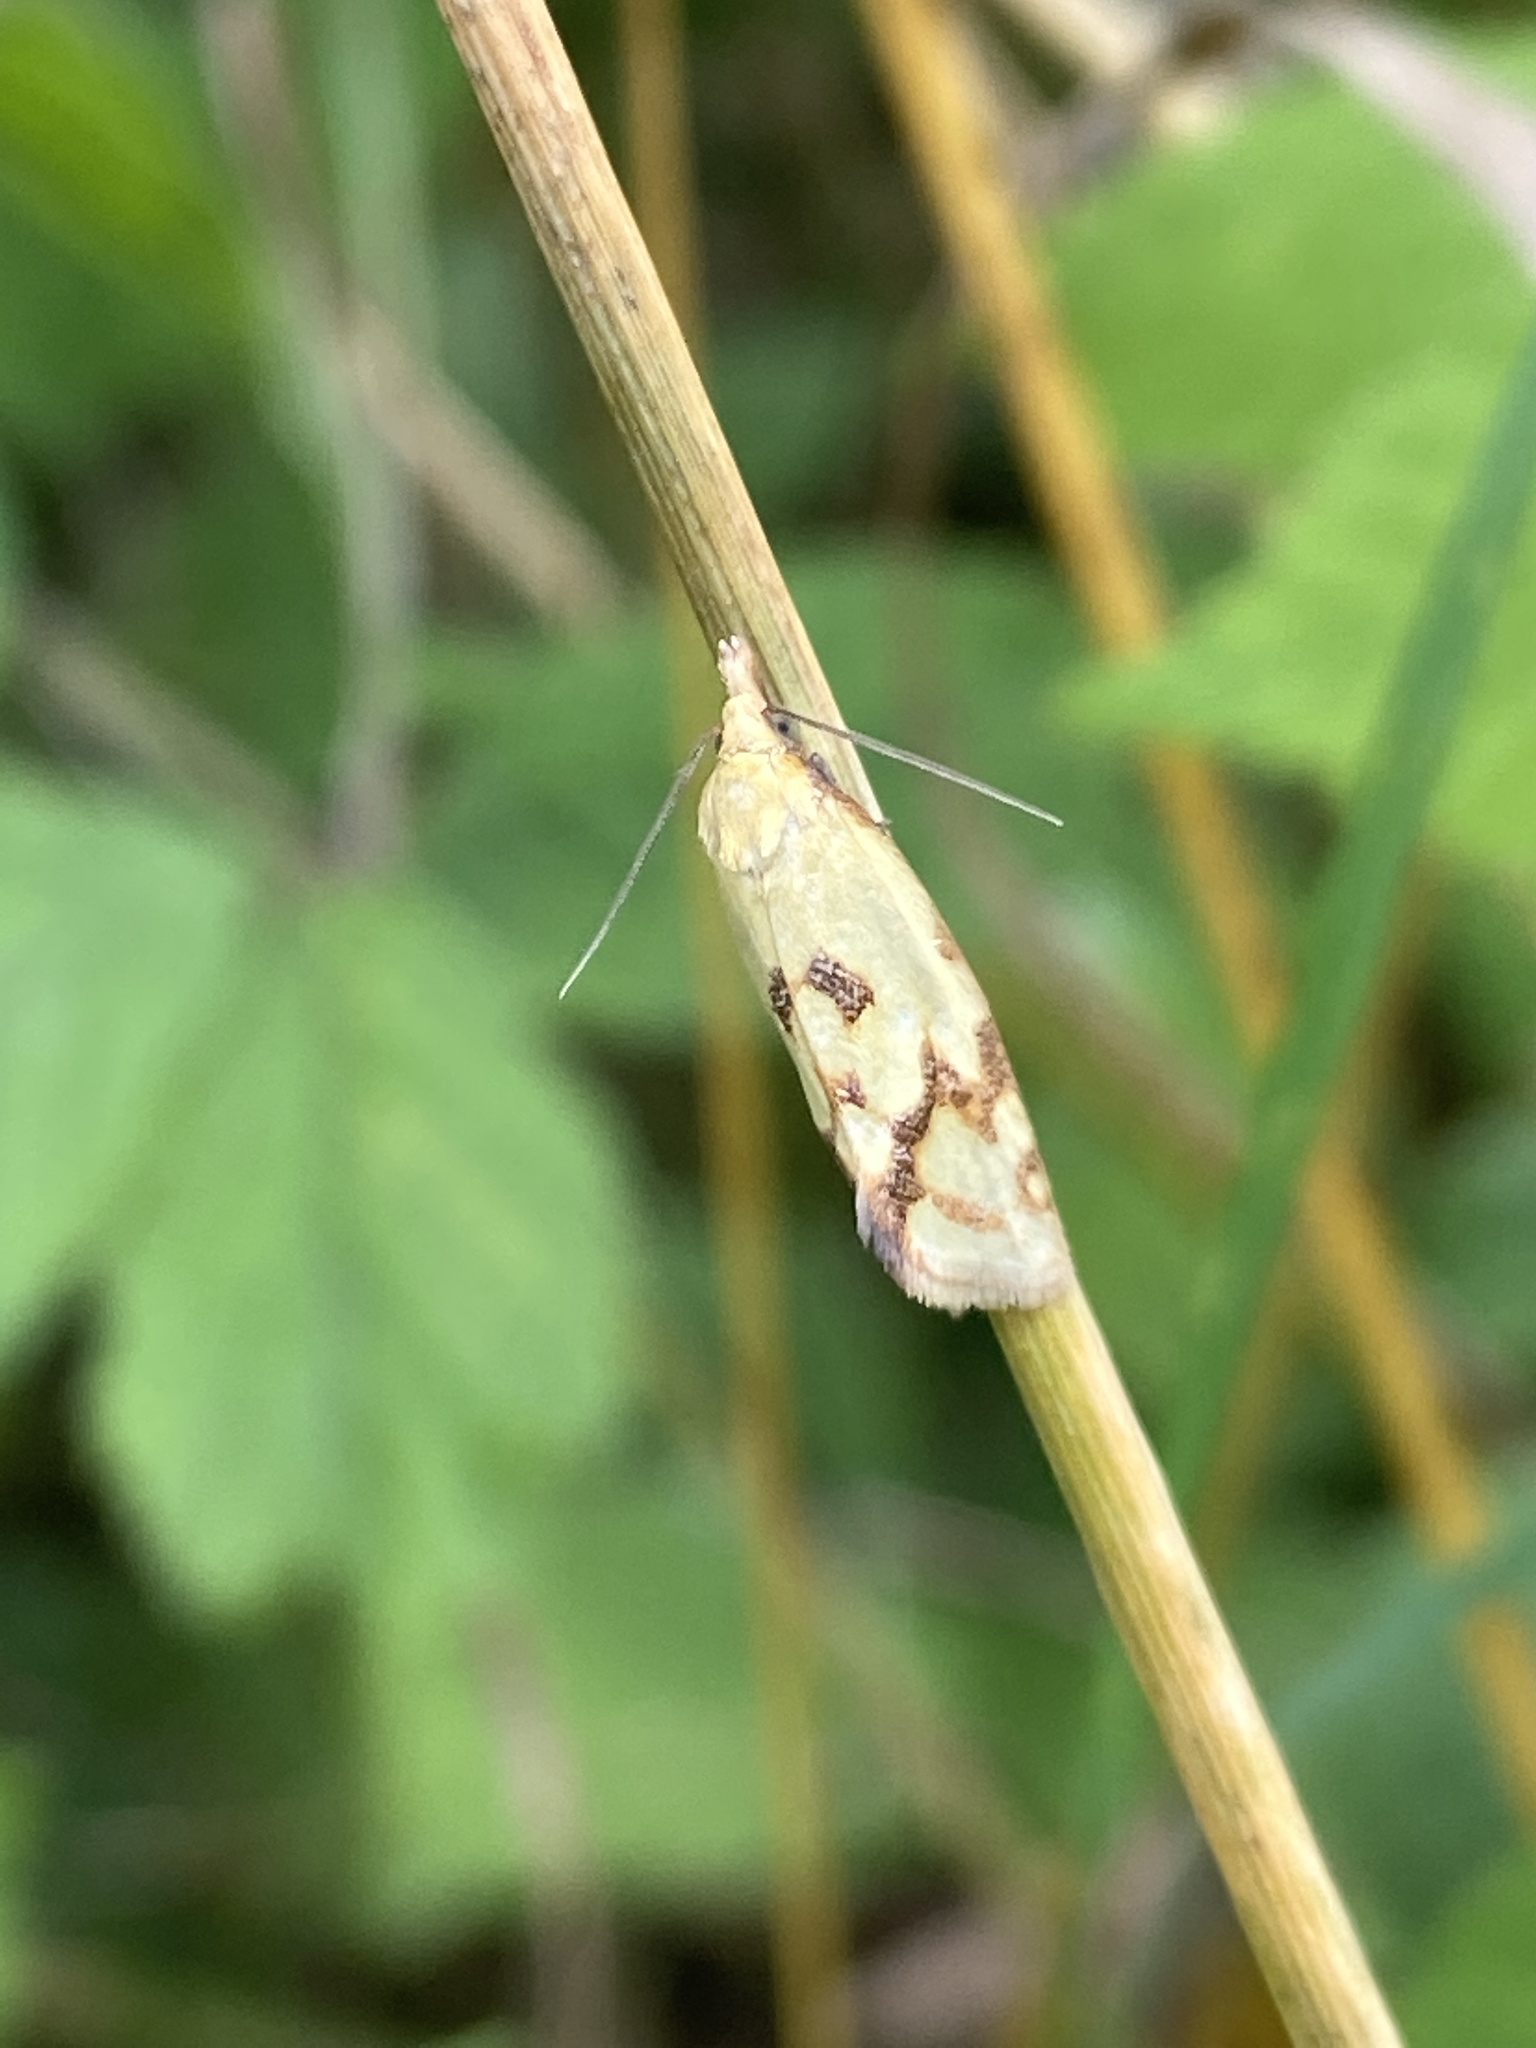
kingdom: Animalia
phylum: Arthropoda
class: Insecta
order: Lepidoptera
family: Tortricidae
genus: Agapeta
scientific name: Agapeta hamana
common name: Common yellow conch
